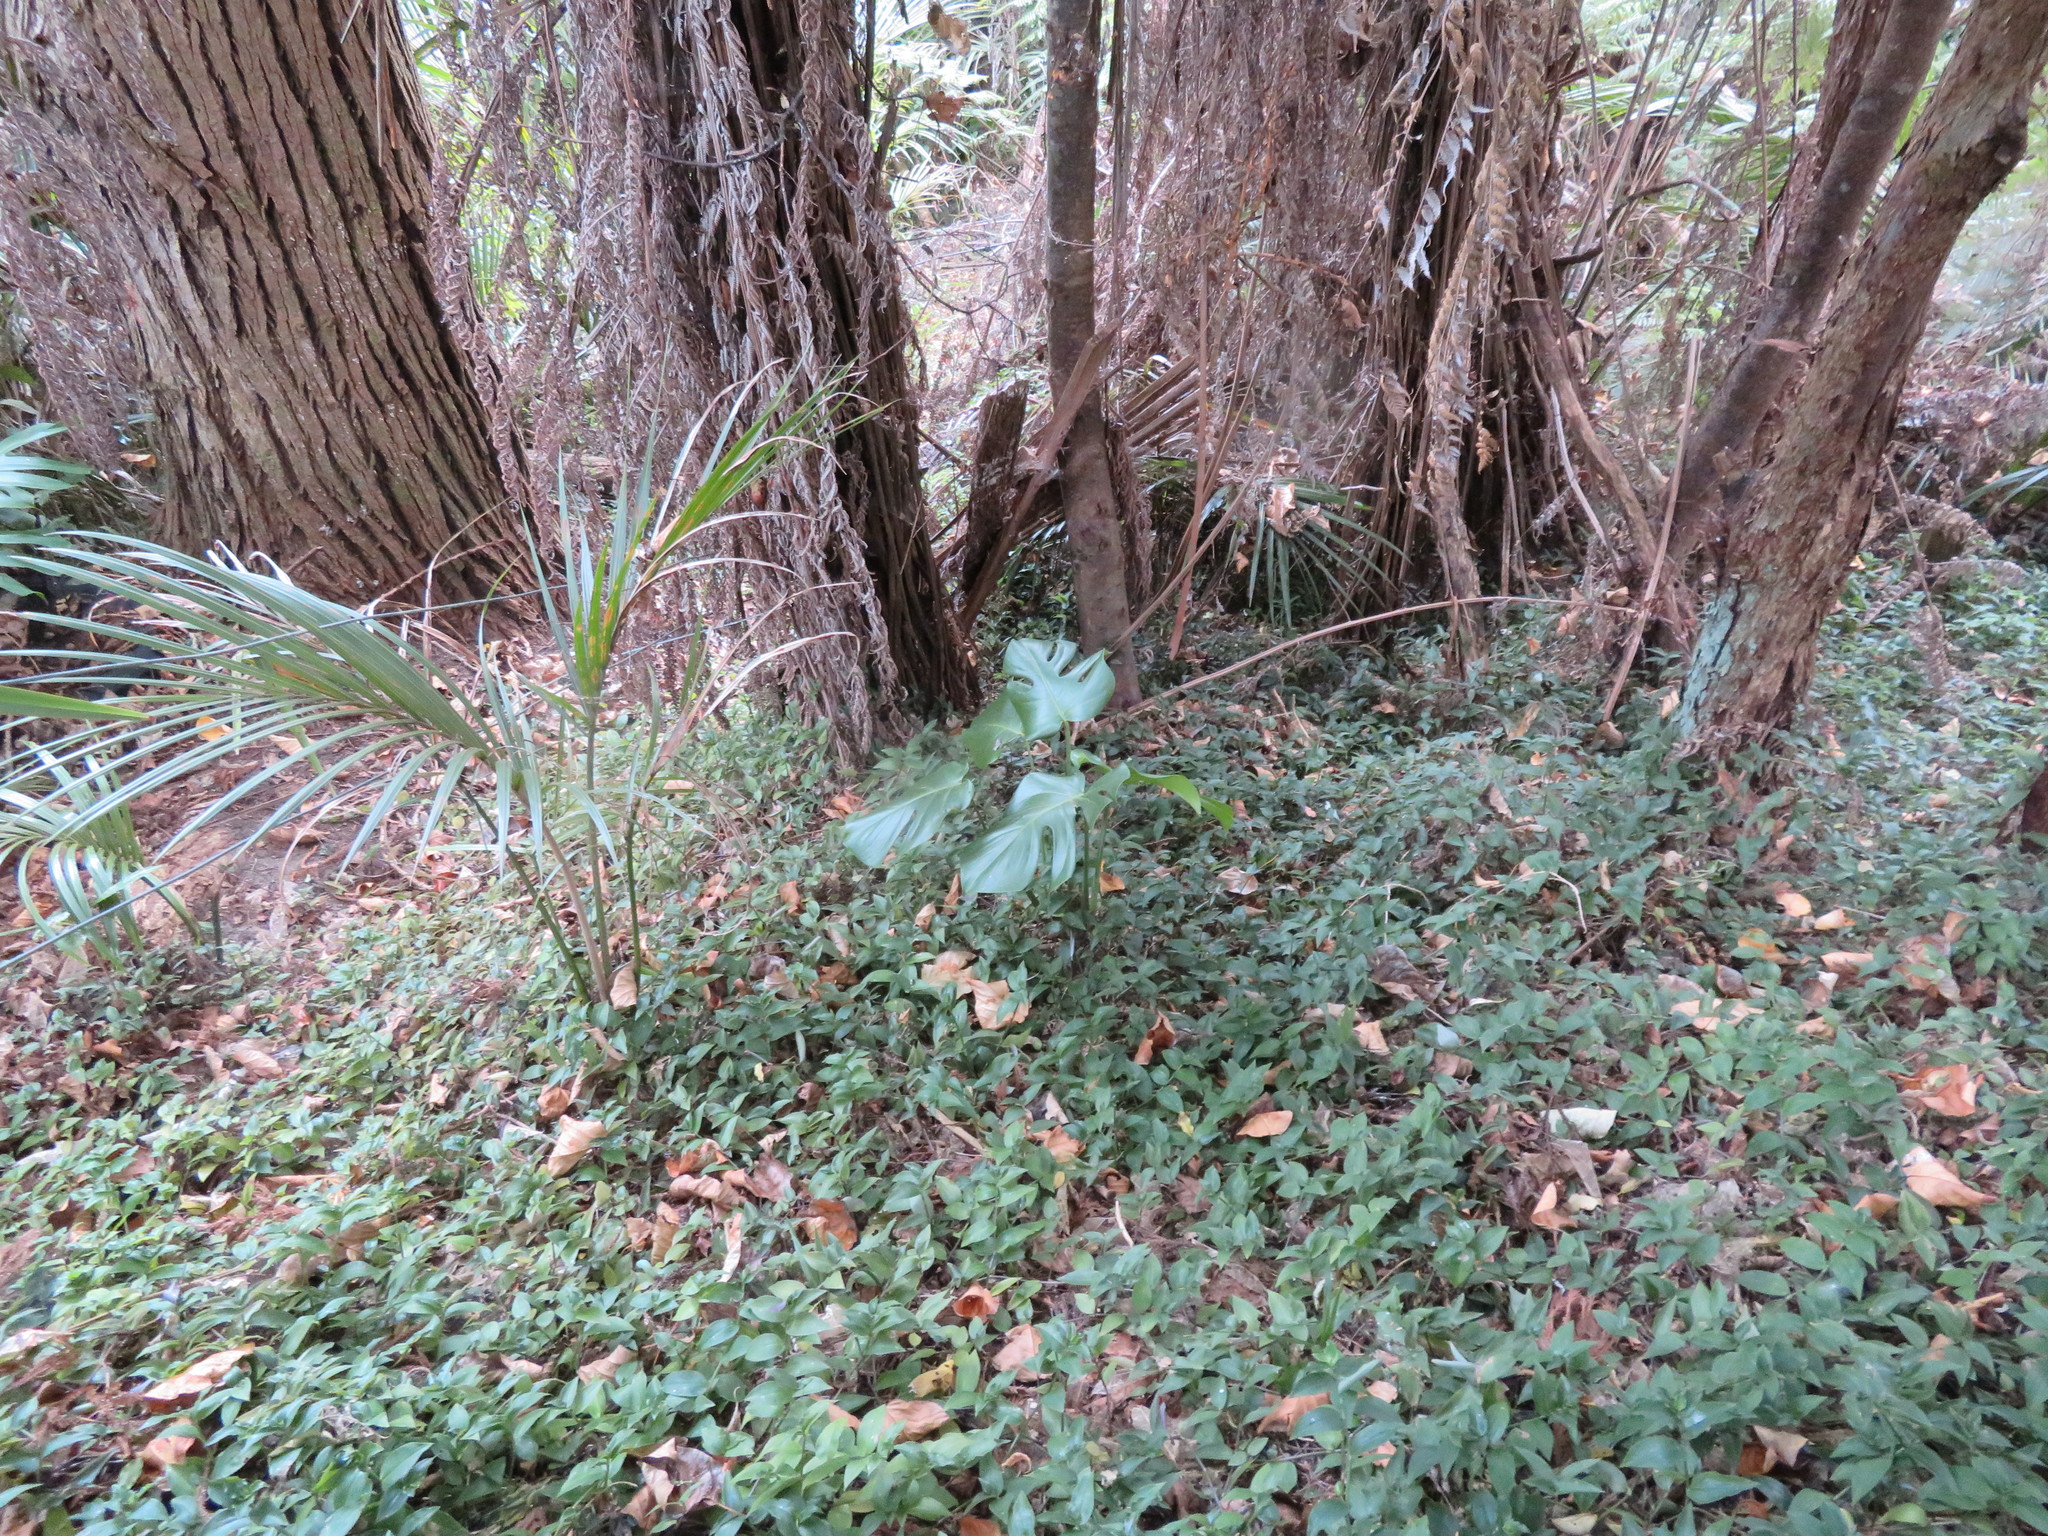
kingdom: Plantae
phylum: Tracheophyta
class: Liliopsida
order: Alismatales
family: Araceae
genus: Monstera
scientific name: Monstera deliciosa
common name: Cut-leaf-philodendron
